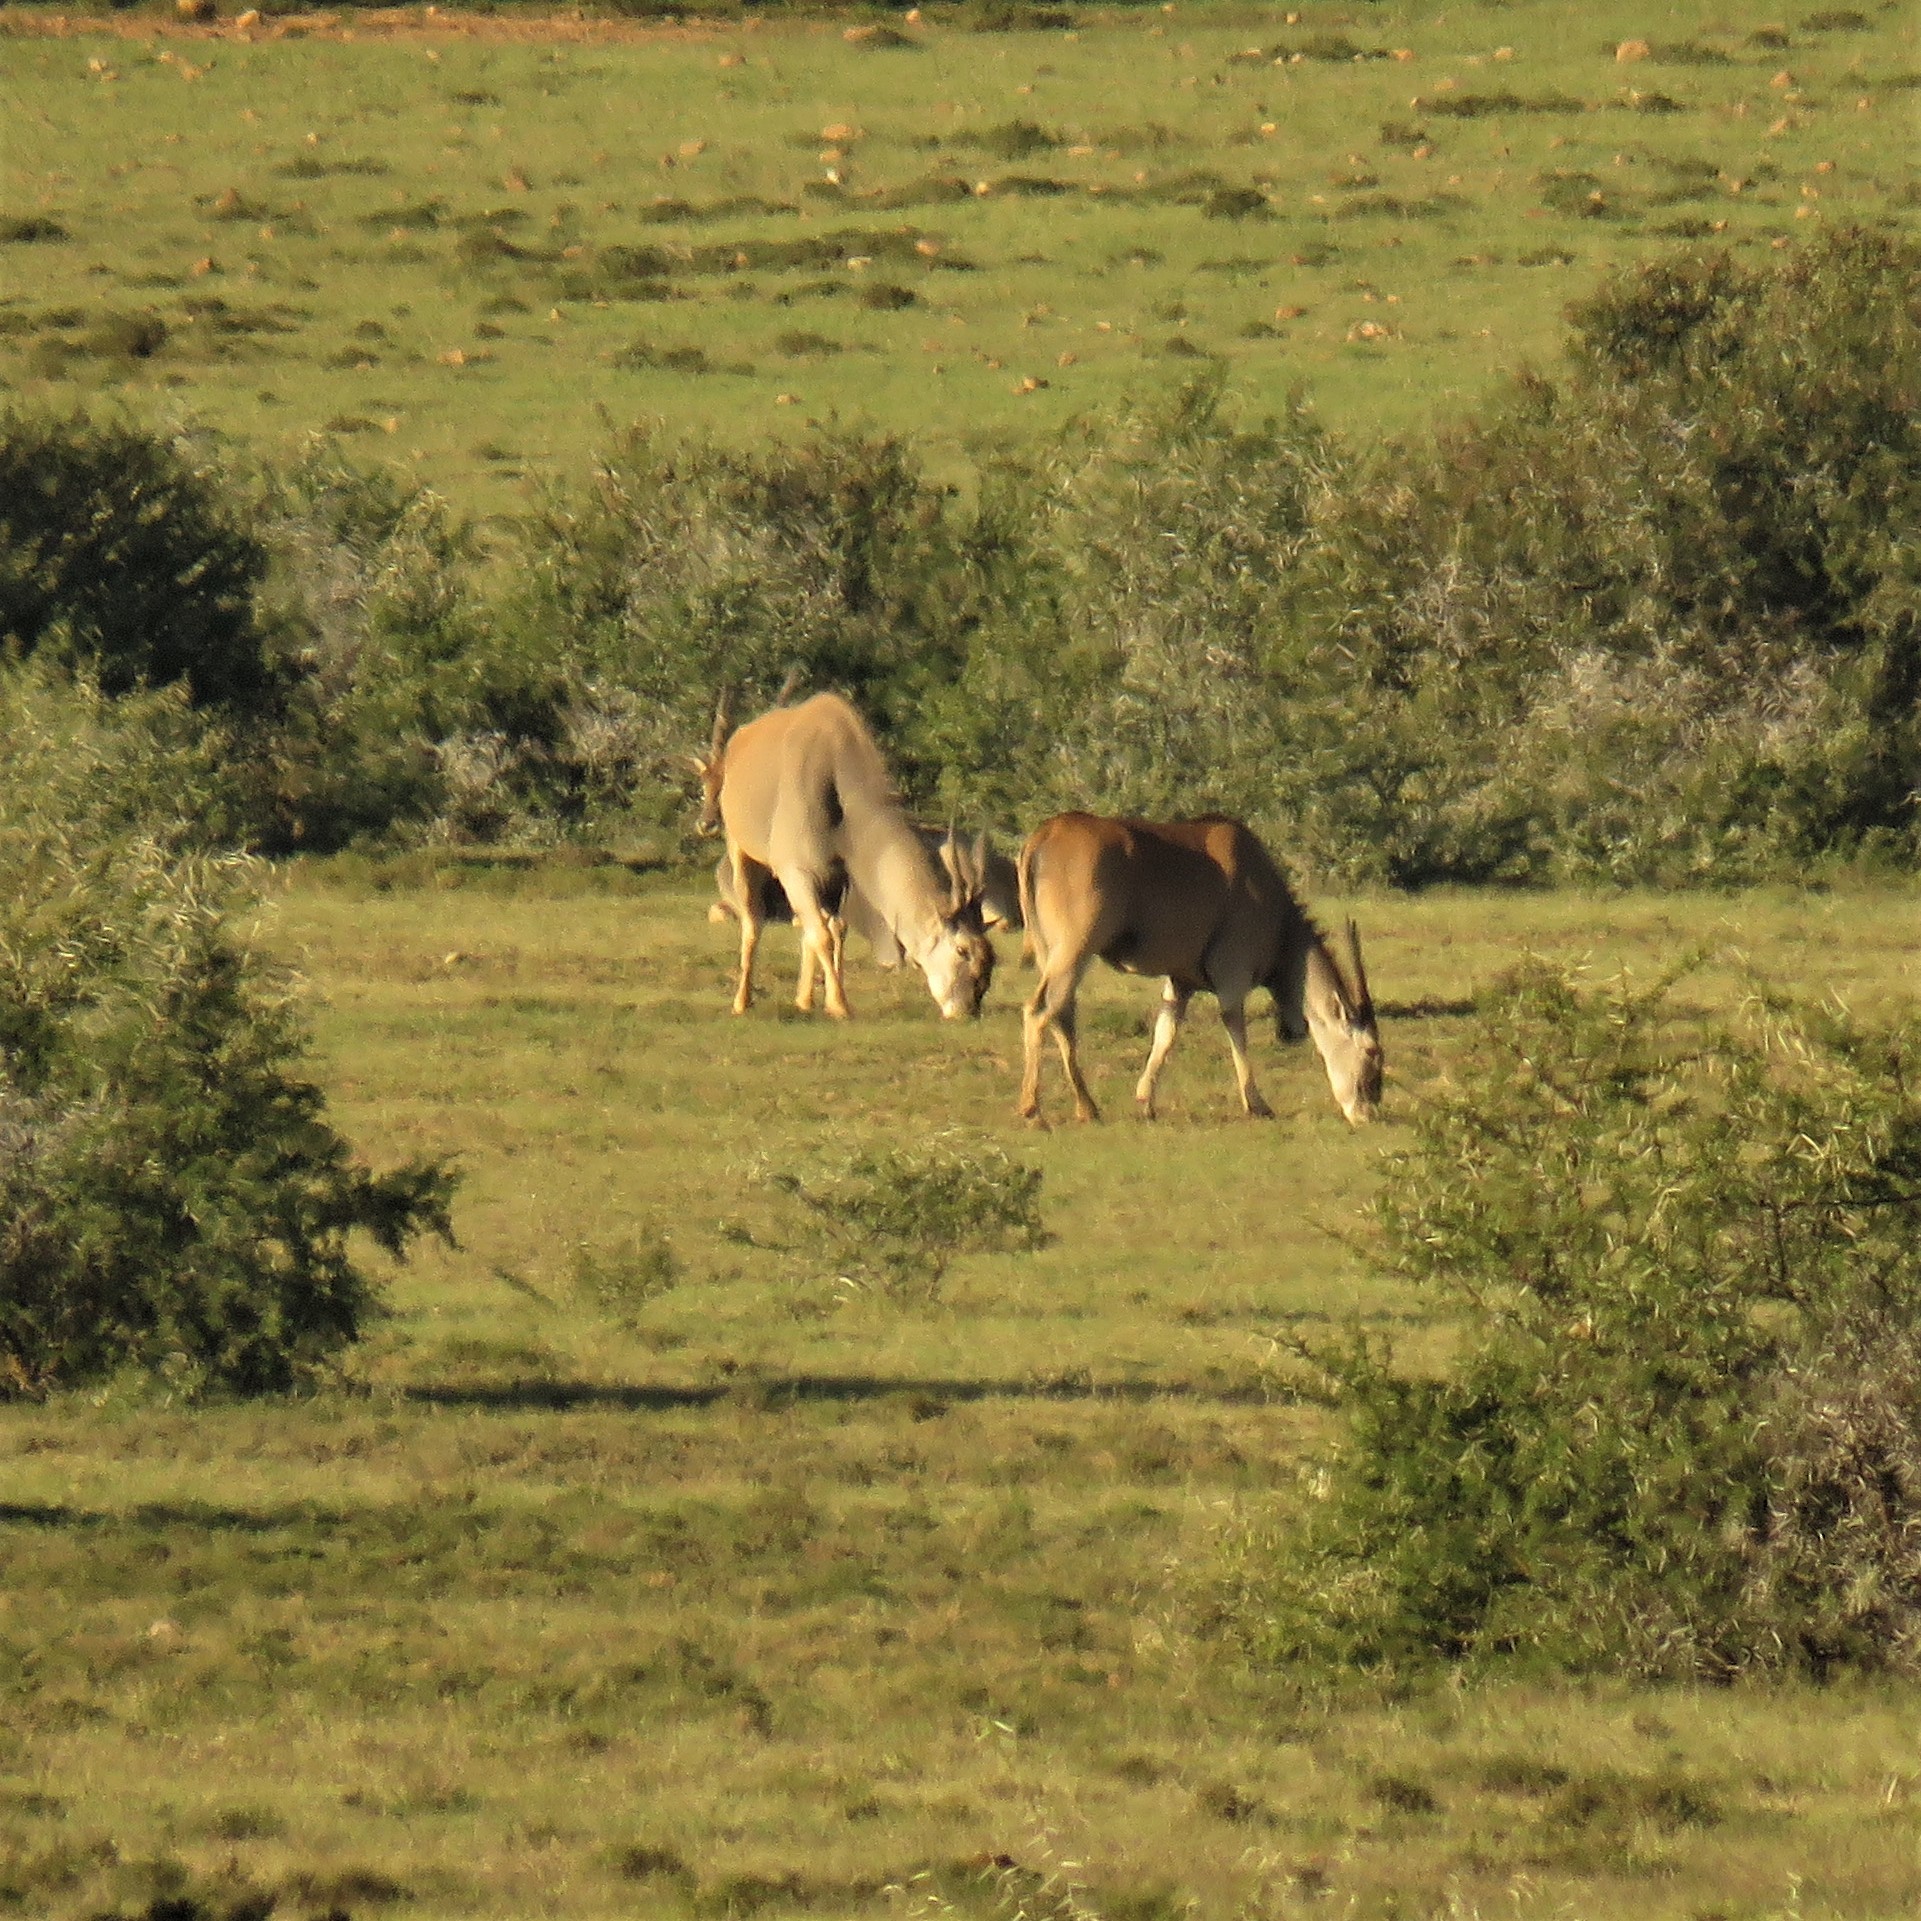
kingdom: Animalia
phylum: Chordata
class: Mammalia
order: Artiodactyla
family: Bovidae
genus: Taurotragus
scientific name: Taurotragus oryx
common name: Common eland
